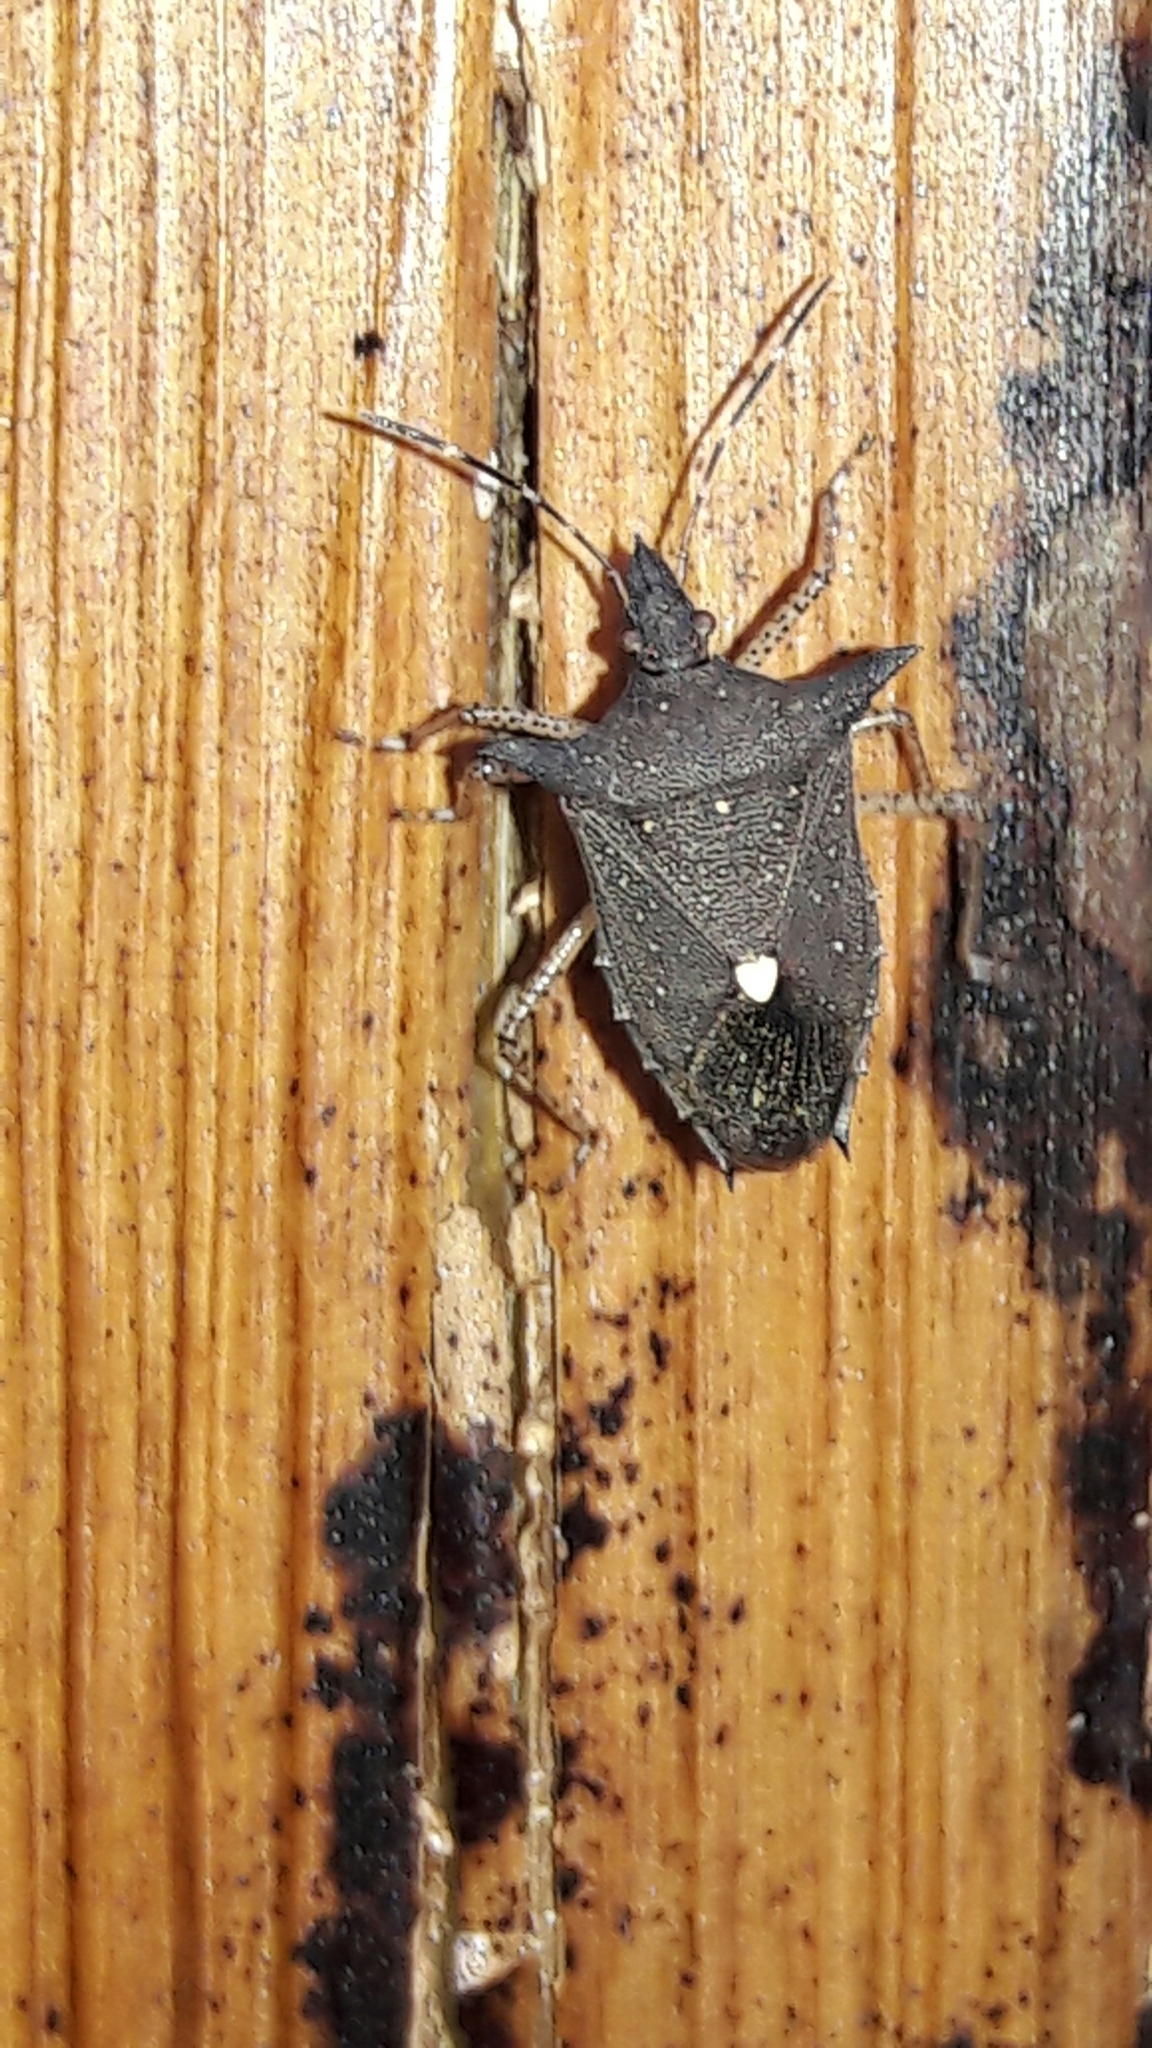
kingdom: Animalia
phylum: Arthropoda
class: Insecta
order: Hemiptera
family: Pentatomidae
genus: Proxys
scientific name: Proxys albopunctulatus
